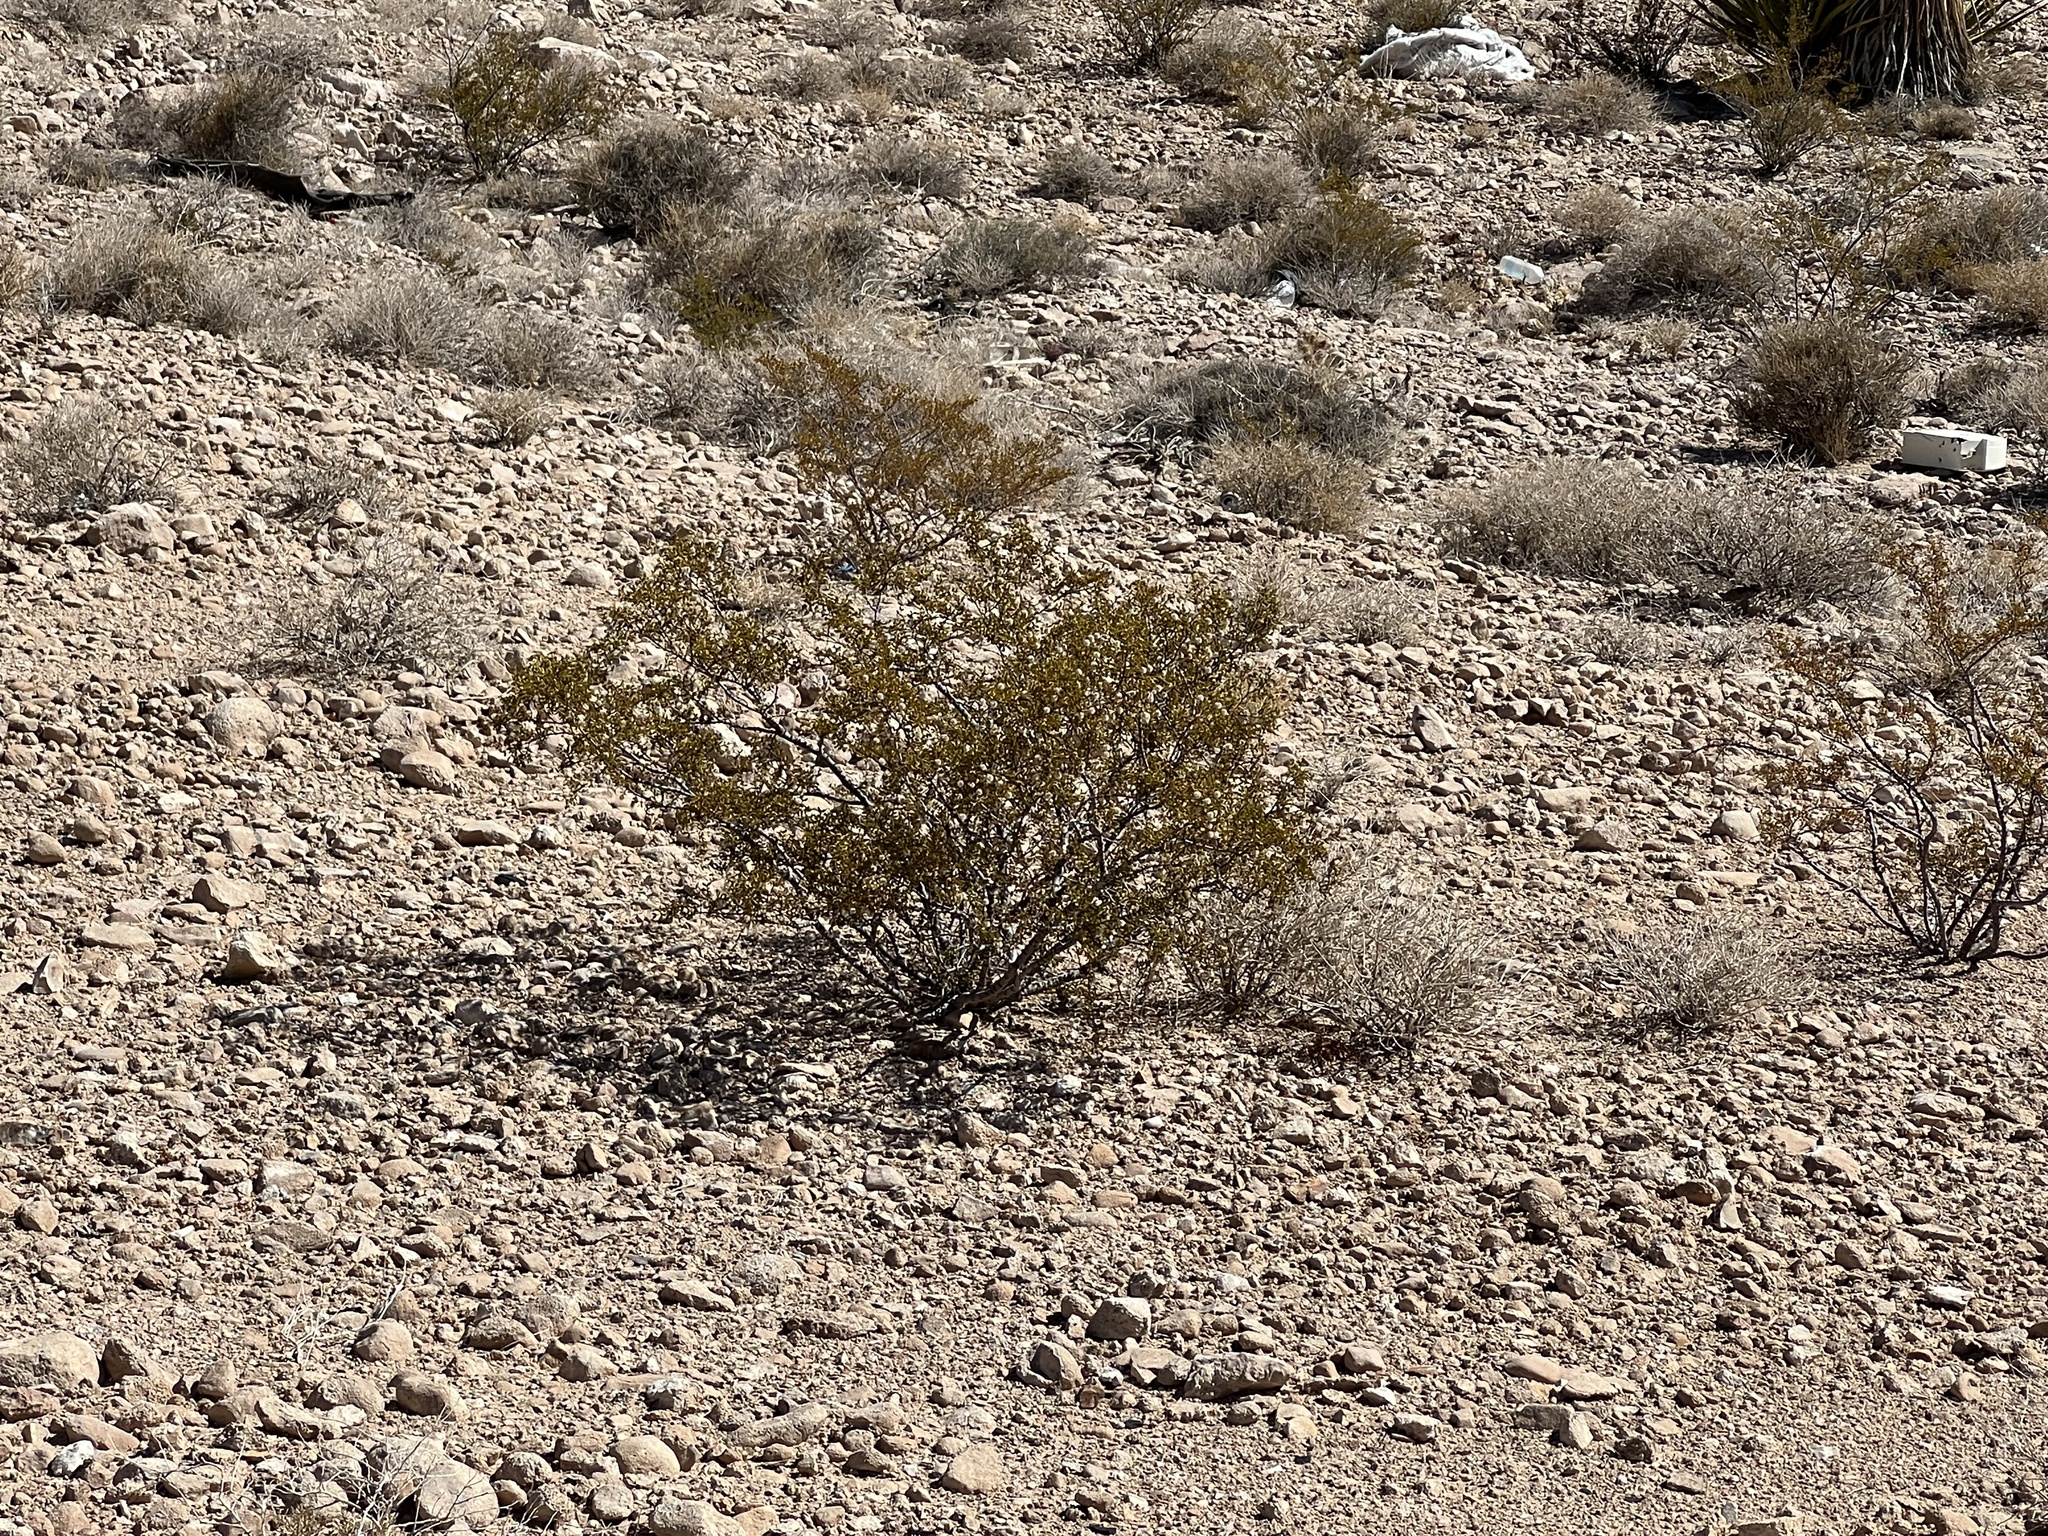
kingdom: Plantae
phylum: Tracheophyta
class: Magnoliopsida
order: Zygophyllales
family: Zygophyllaceae
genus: Larrea
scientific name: Larrea tridentata
